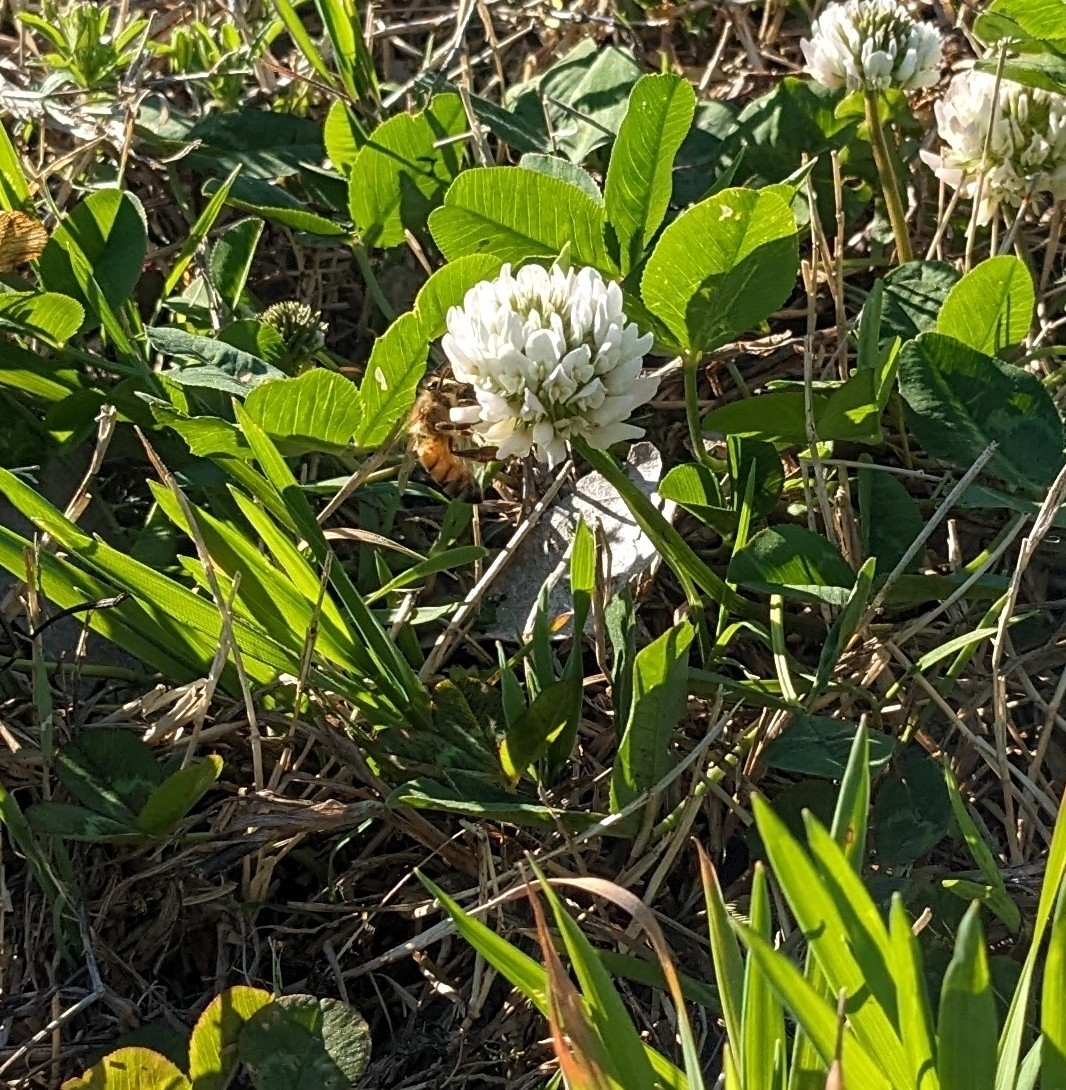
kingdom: Animalia
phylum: Arthropoda
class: Insecta
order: Hymenoptera
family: Apidae
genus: Apis
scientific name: Apis mellifera
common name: Honey bee
